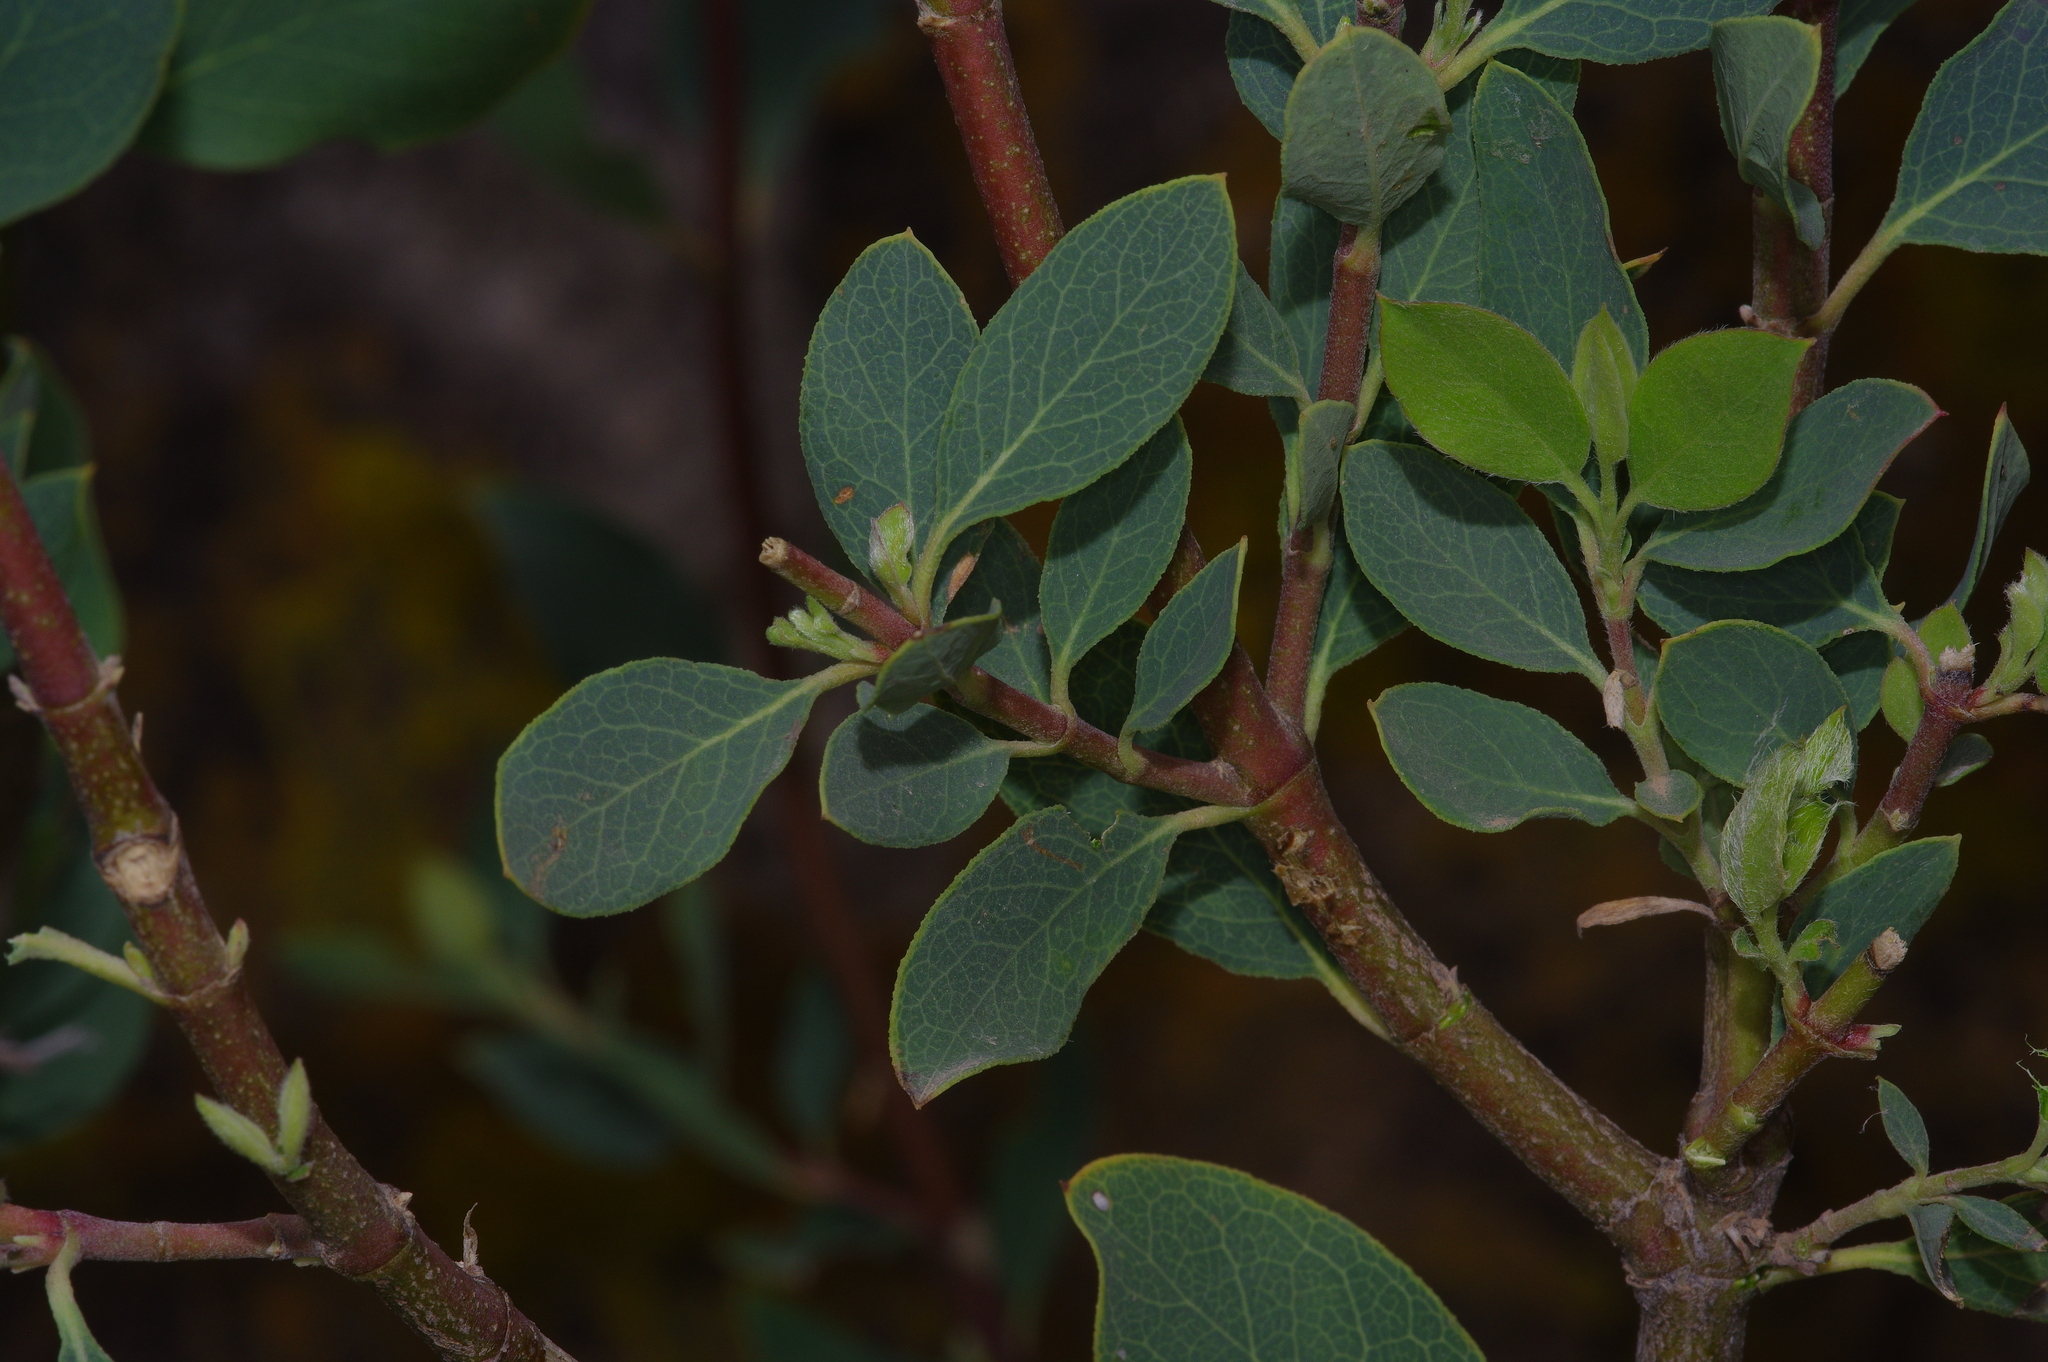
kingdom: Plantae
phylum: Tracheophyta
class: Magnoliopsida
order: Garryales
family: Garryaceae
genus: Garrya
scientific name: Garrya wrightii
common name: Wright's silktassel
